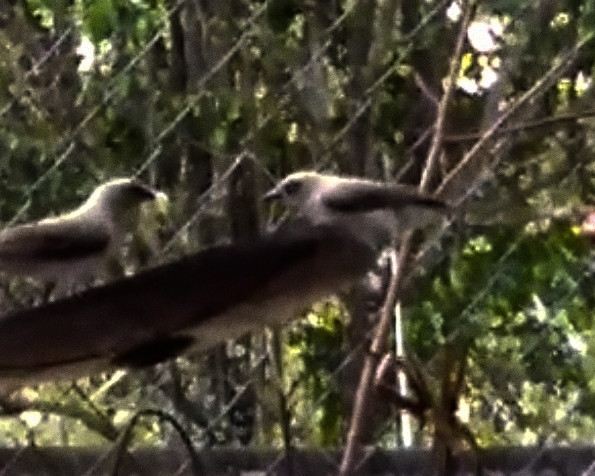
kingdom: Animalia
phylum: Chordata
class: Aves
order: Passeriformes
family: Mimidae
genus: Mimus
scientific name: Mimus gilvus
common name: Tropical mockingbird
